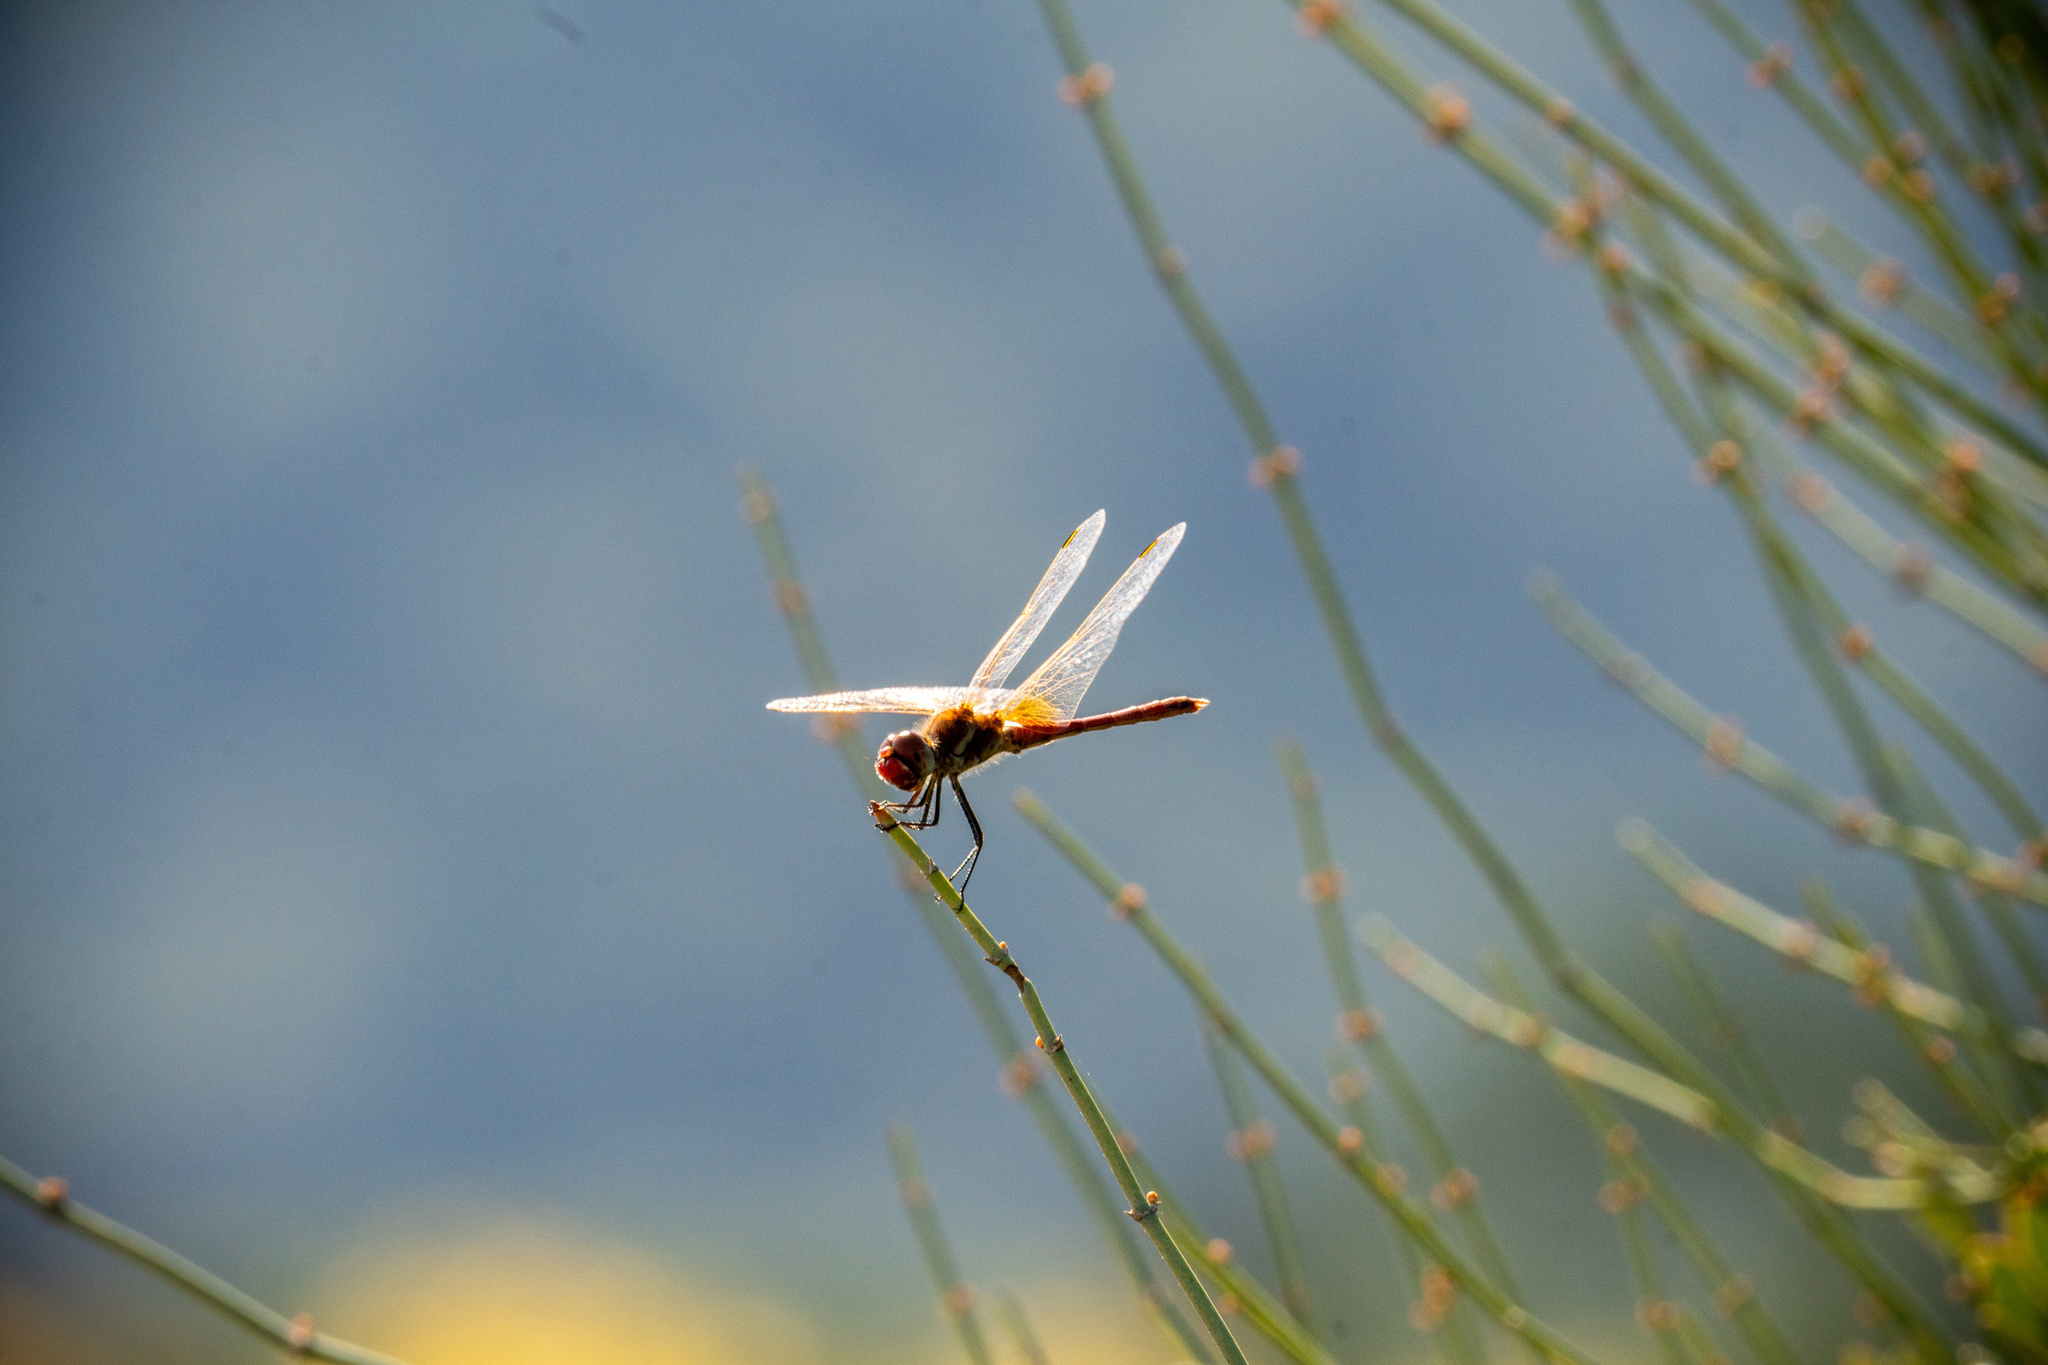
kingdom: Animalia
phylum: Arthropoda
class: Insecta
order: Odonata
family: Libellulidae
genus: Sympetrum
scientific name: Sympetrum fonscolombii
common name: Red-veined darter
